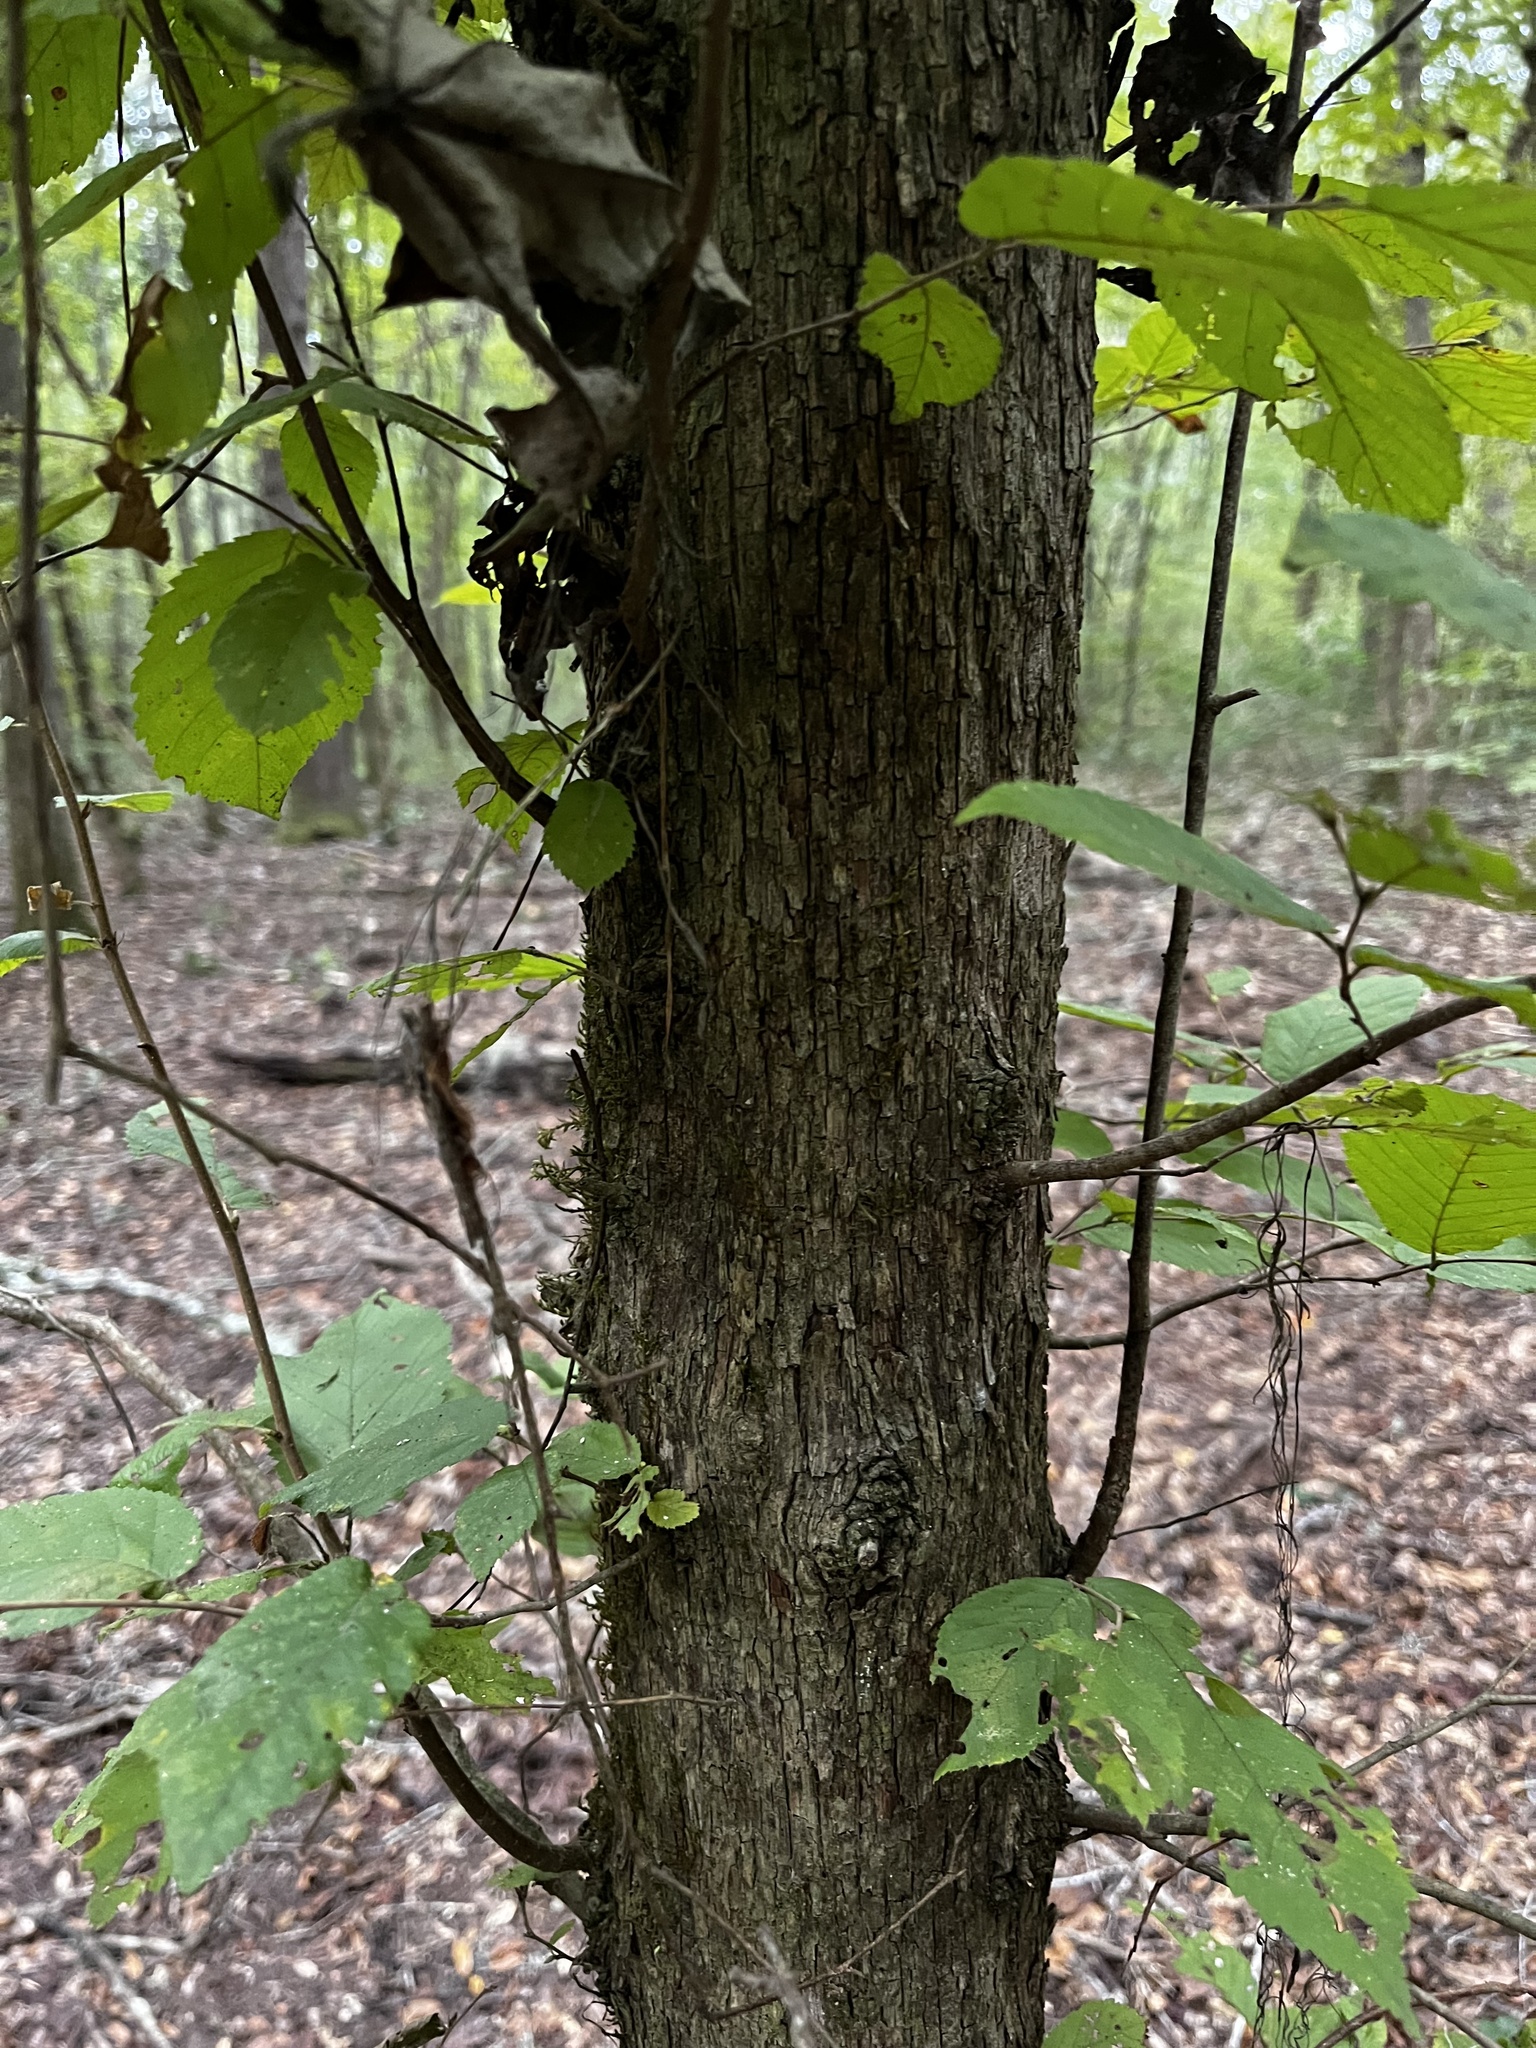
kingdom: Plantae
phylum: Tracheophyta
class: Magnoliopsida
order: Fagales
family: Betulaceae
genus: Ostrya
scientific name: Ostrya virginiana
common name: Ironwood
